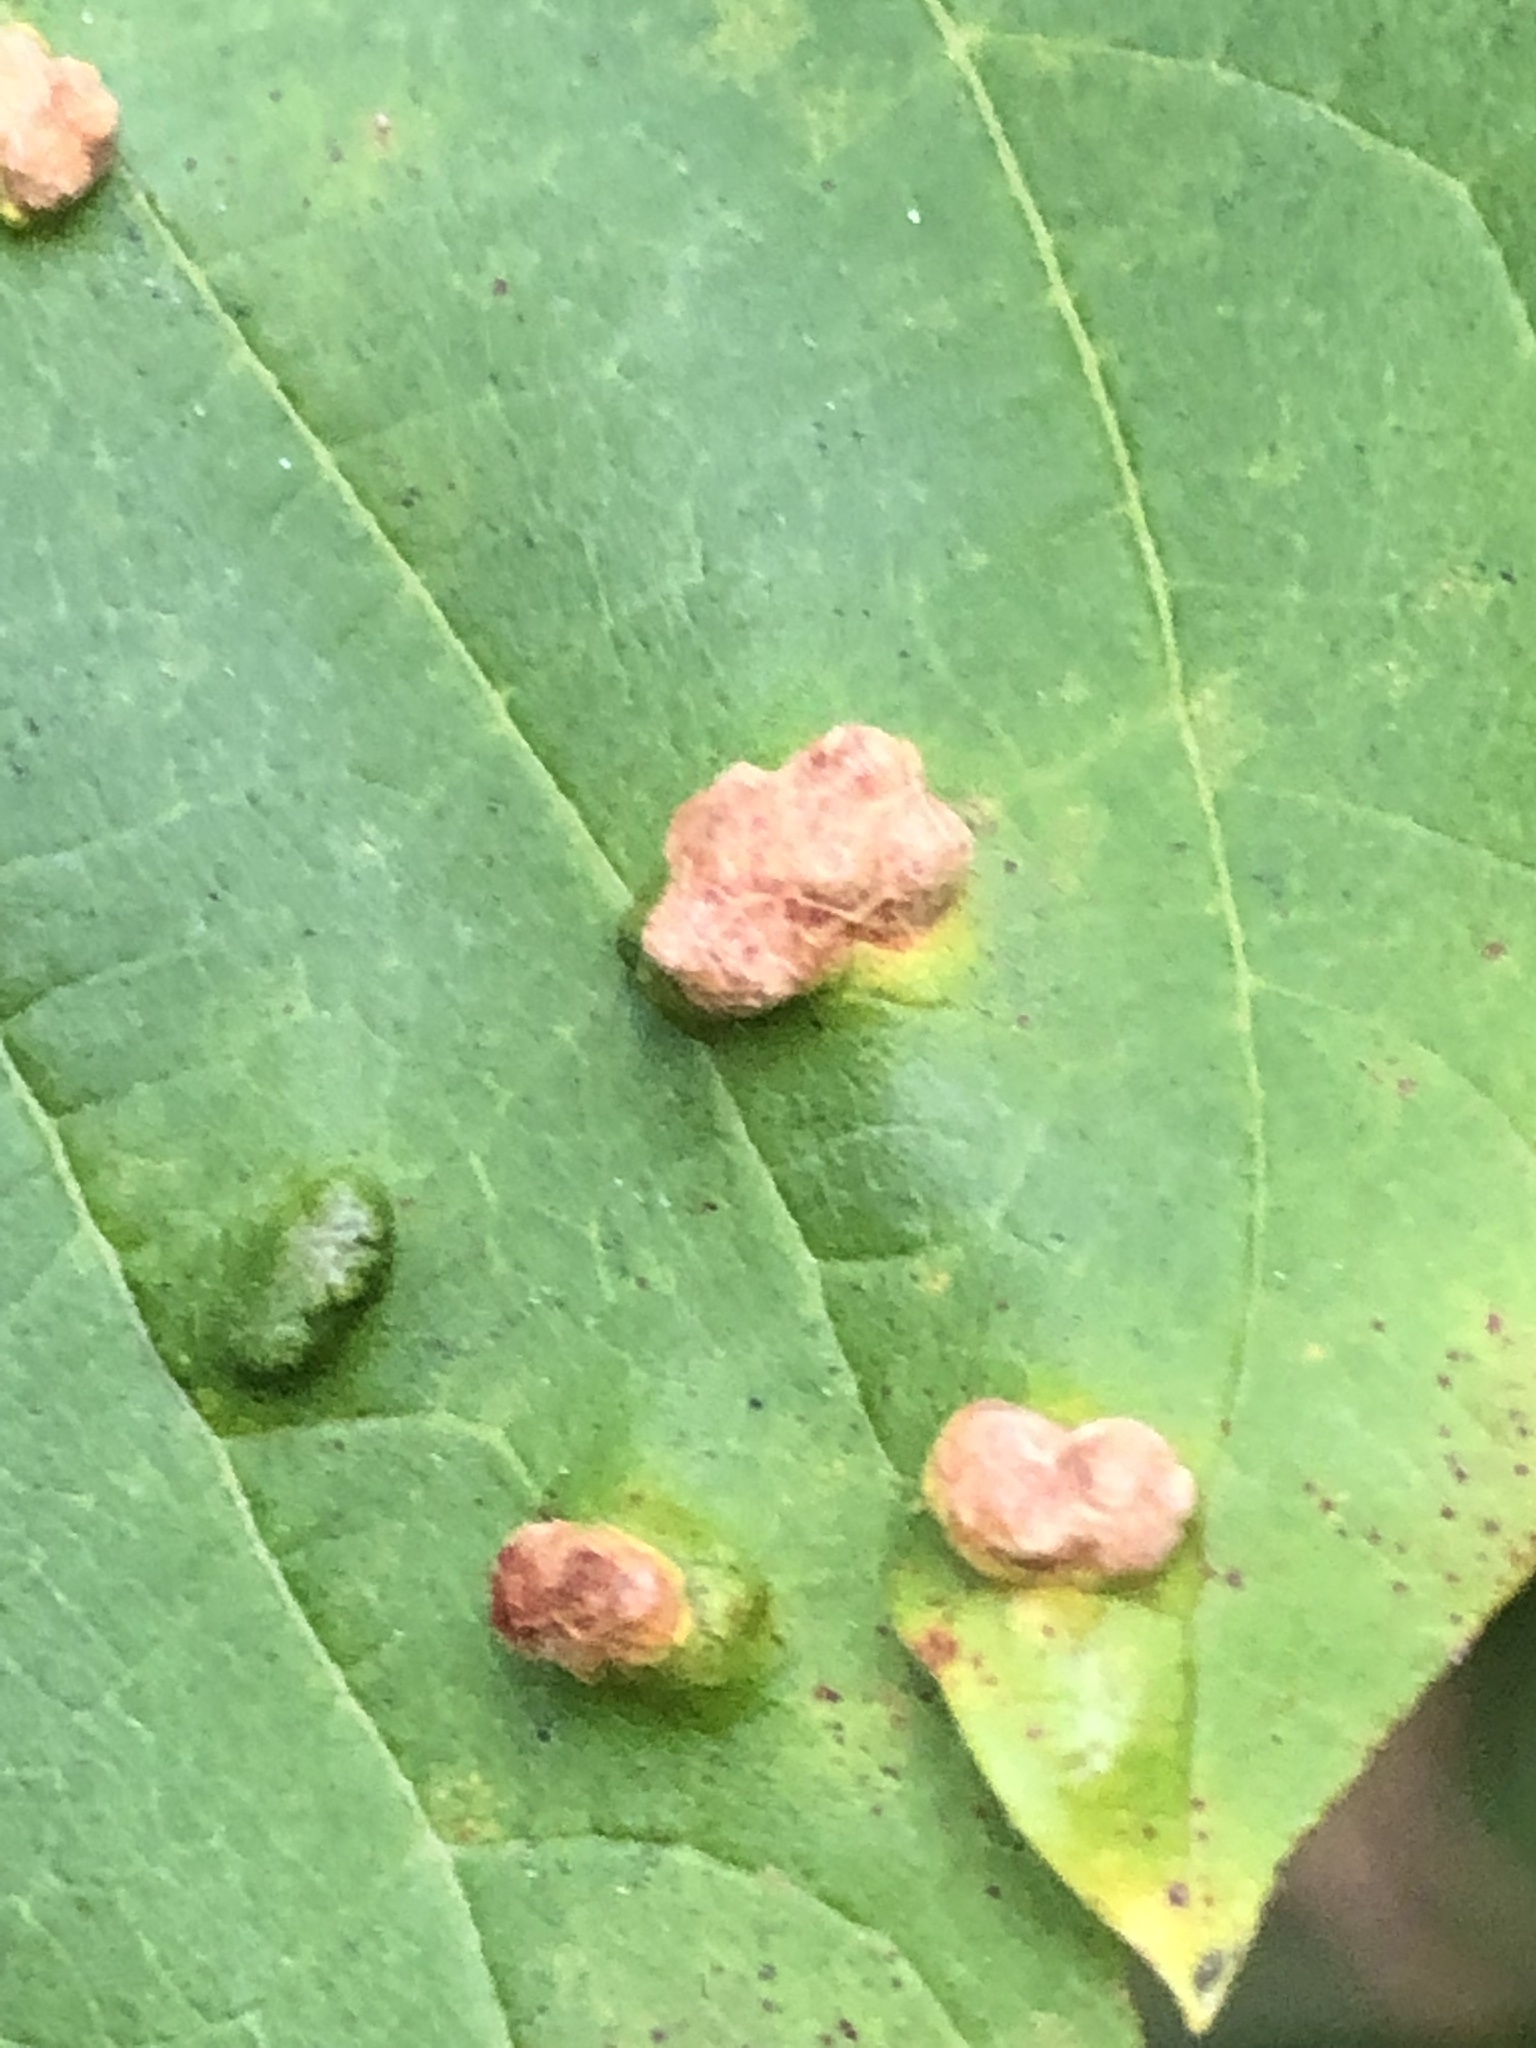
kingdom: Animalia
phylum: Arthropoda
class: Arachnida
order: Trombidiformes
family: Eriophyidae
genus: Aceria
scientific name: Aceria
